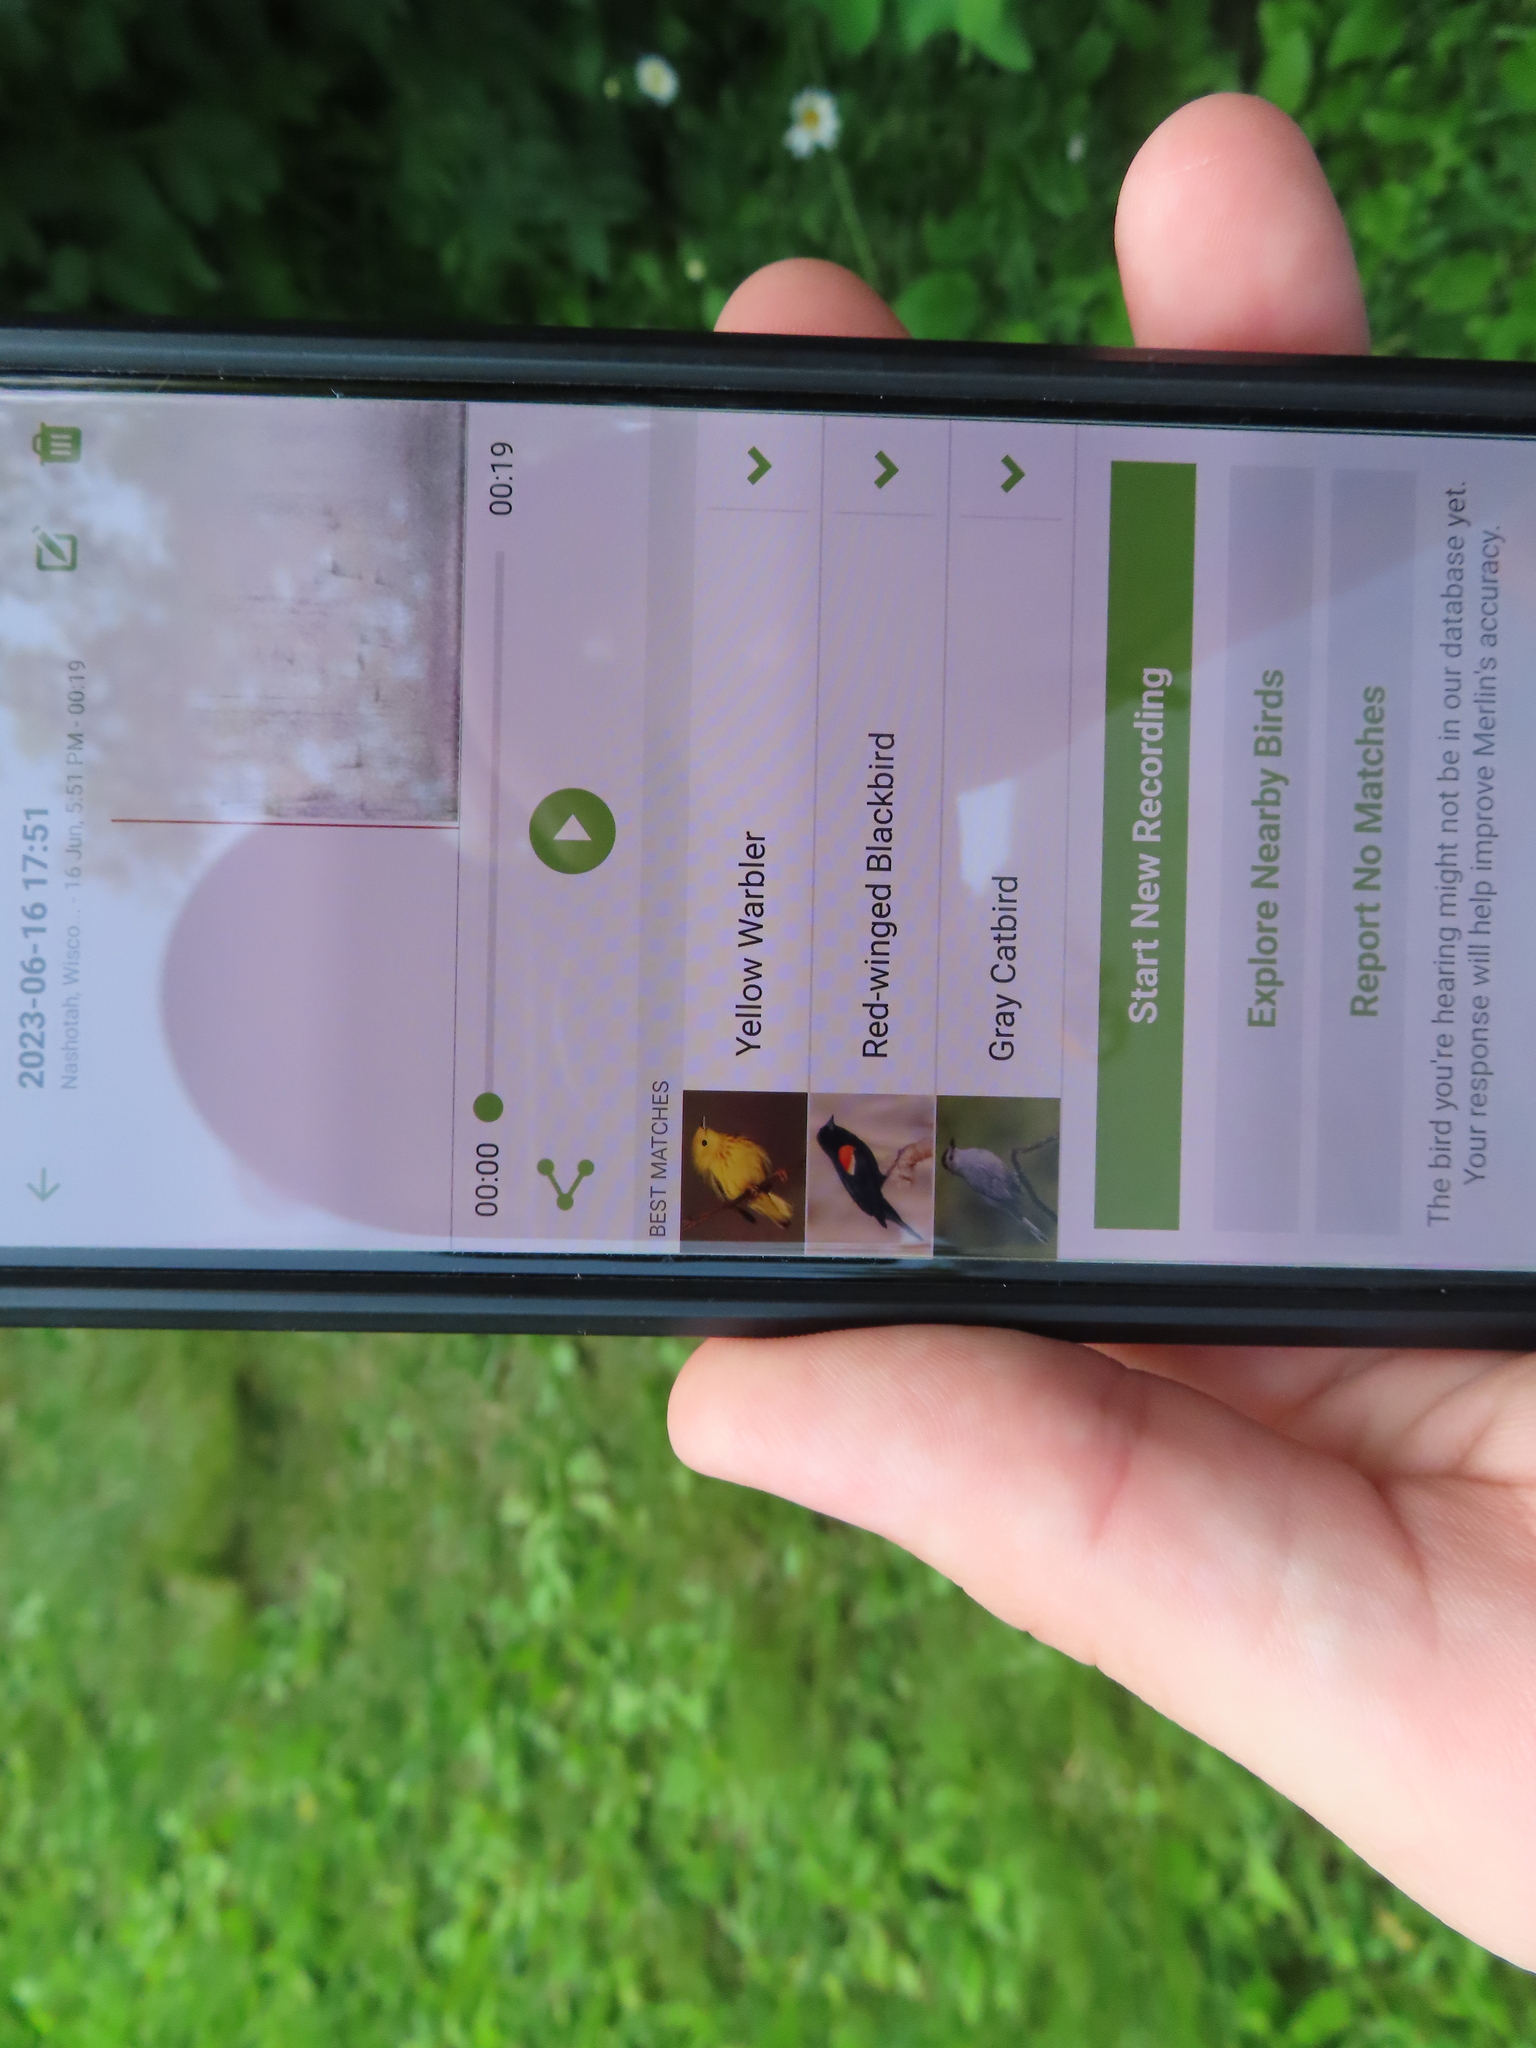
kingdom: Animalia
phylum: Chordata
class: Aves
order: Passeriformes
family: Parulidae
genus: Setophaga
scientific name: Setophaga petechia
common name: Yellow warbler
